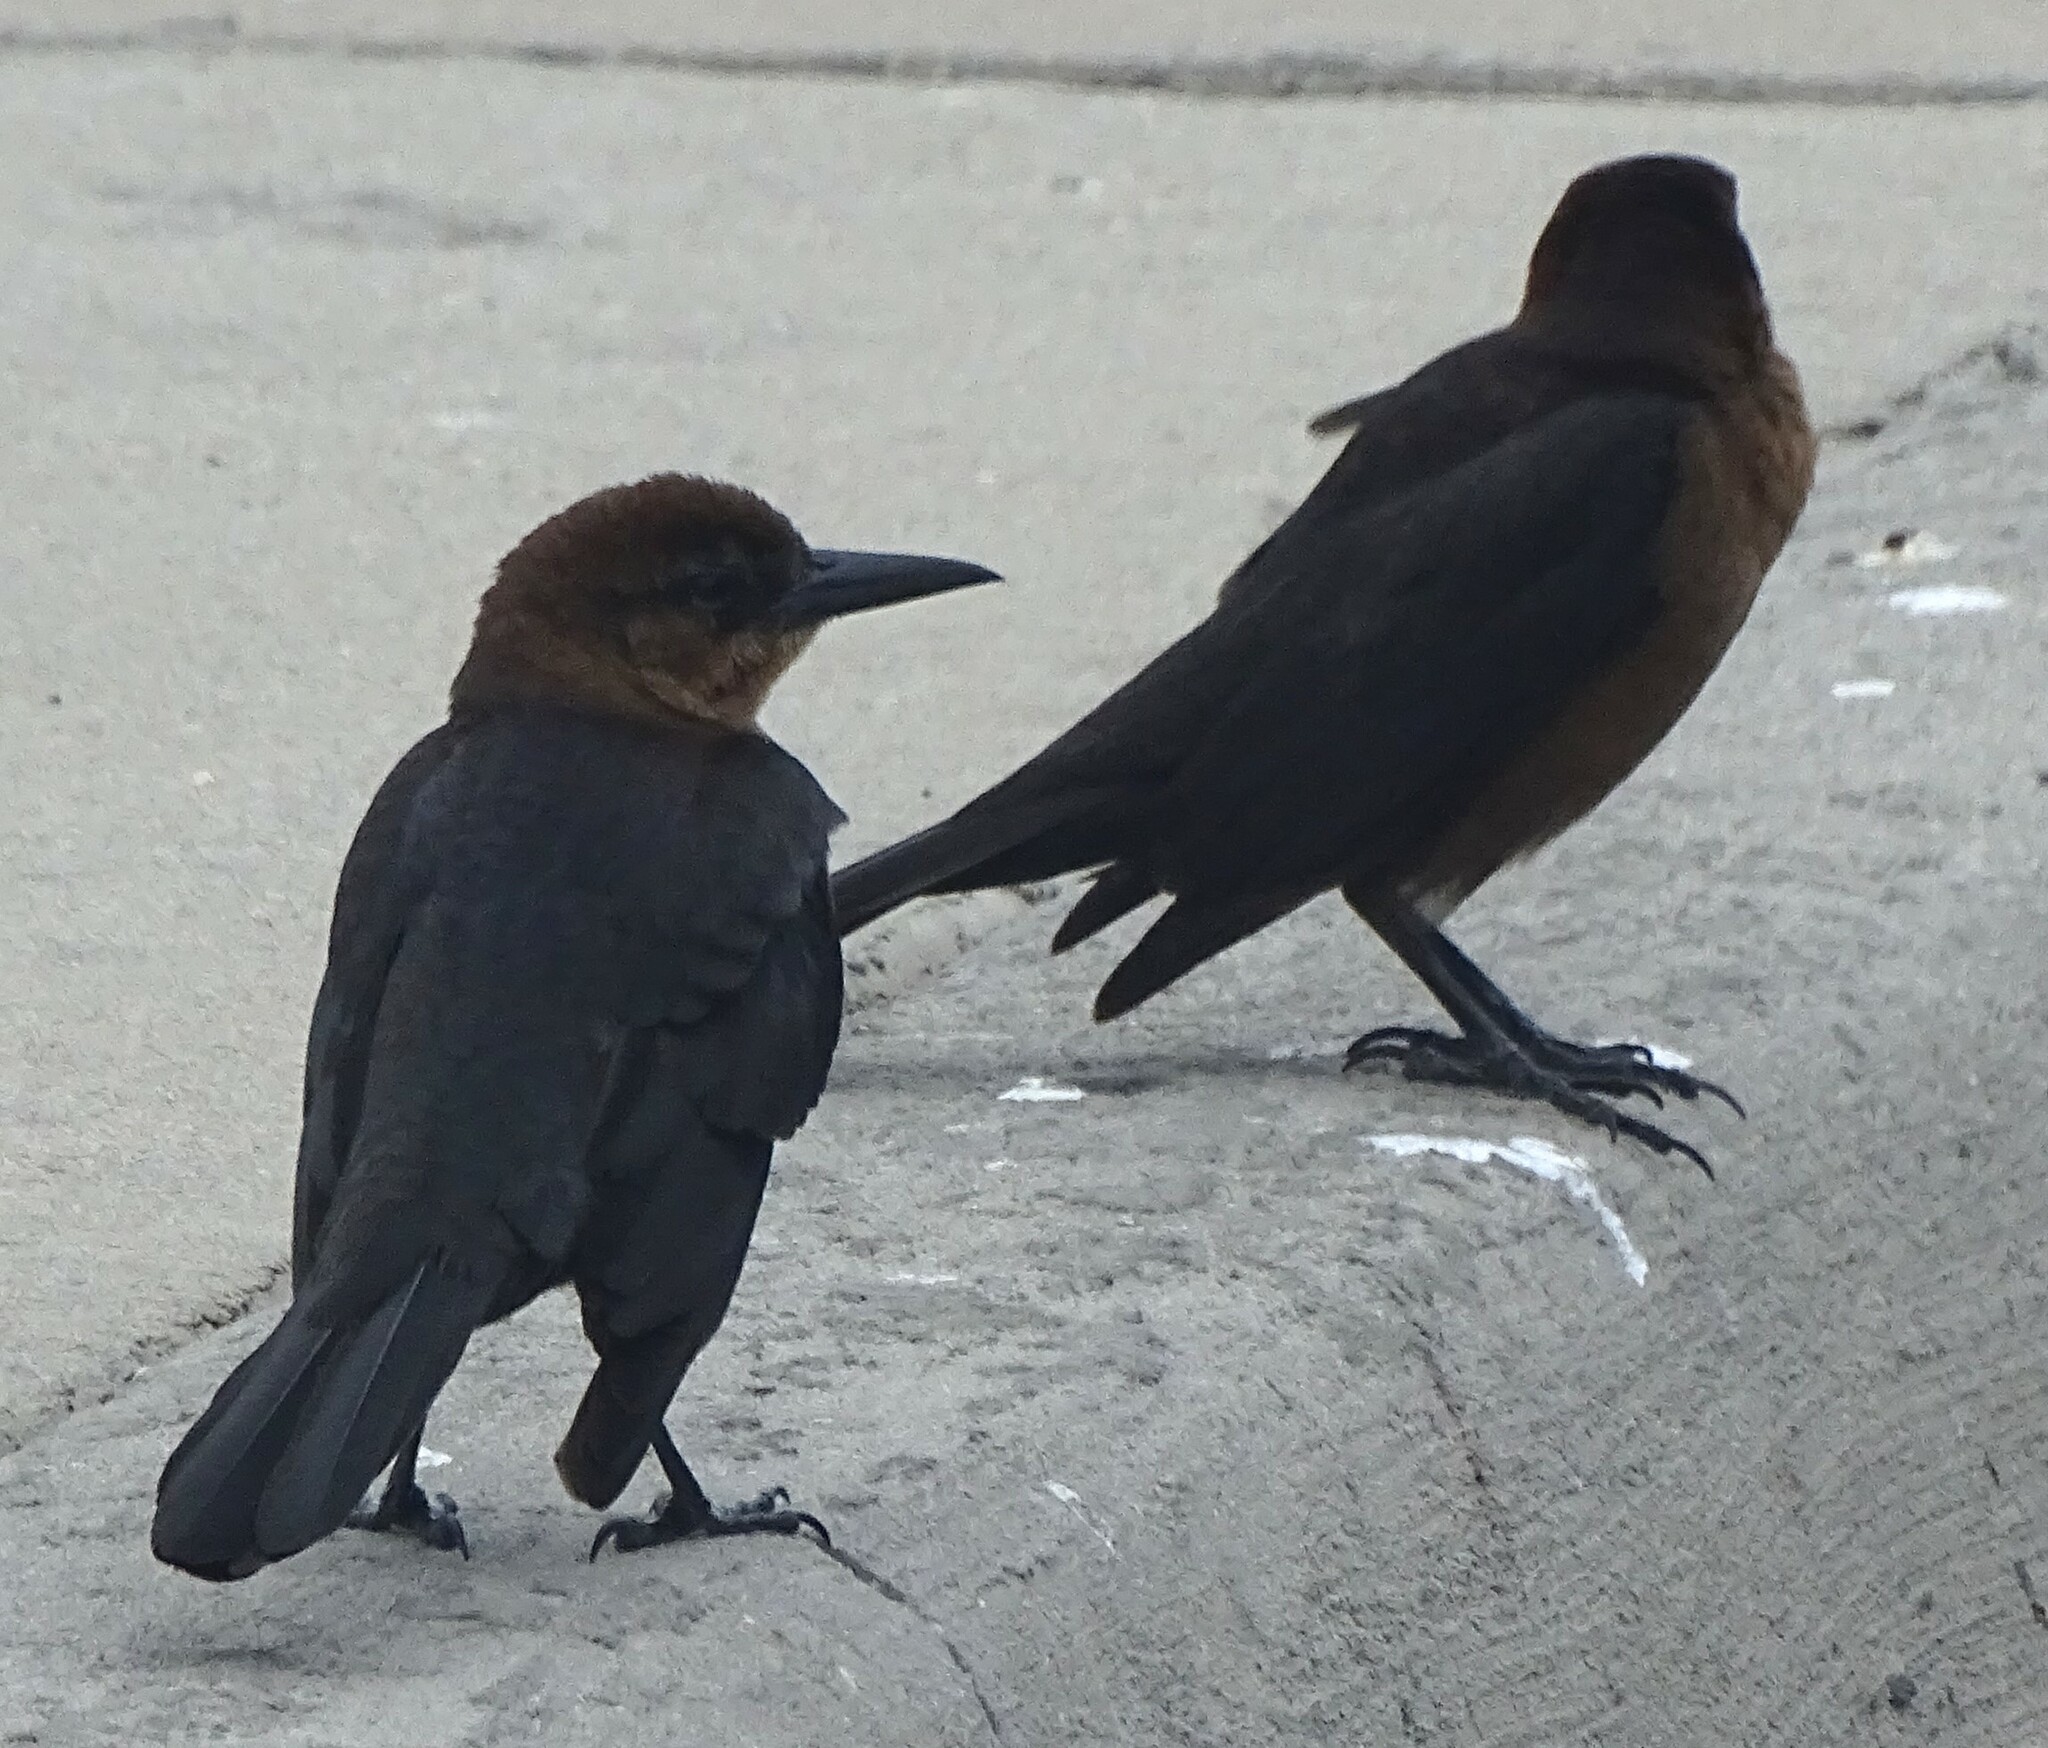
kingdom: Animalia
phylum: Chordata
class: Aves
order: Passeriformes
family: Icteridae
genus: Quiscalus
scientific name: Quiscalus major
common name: Boat-tailed grackle
